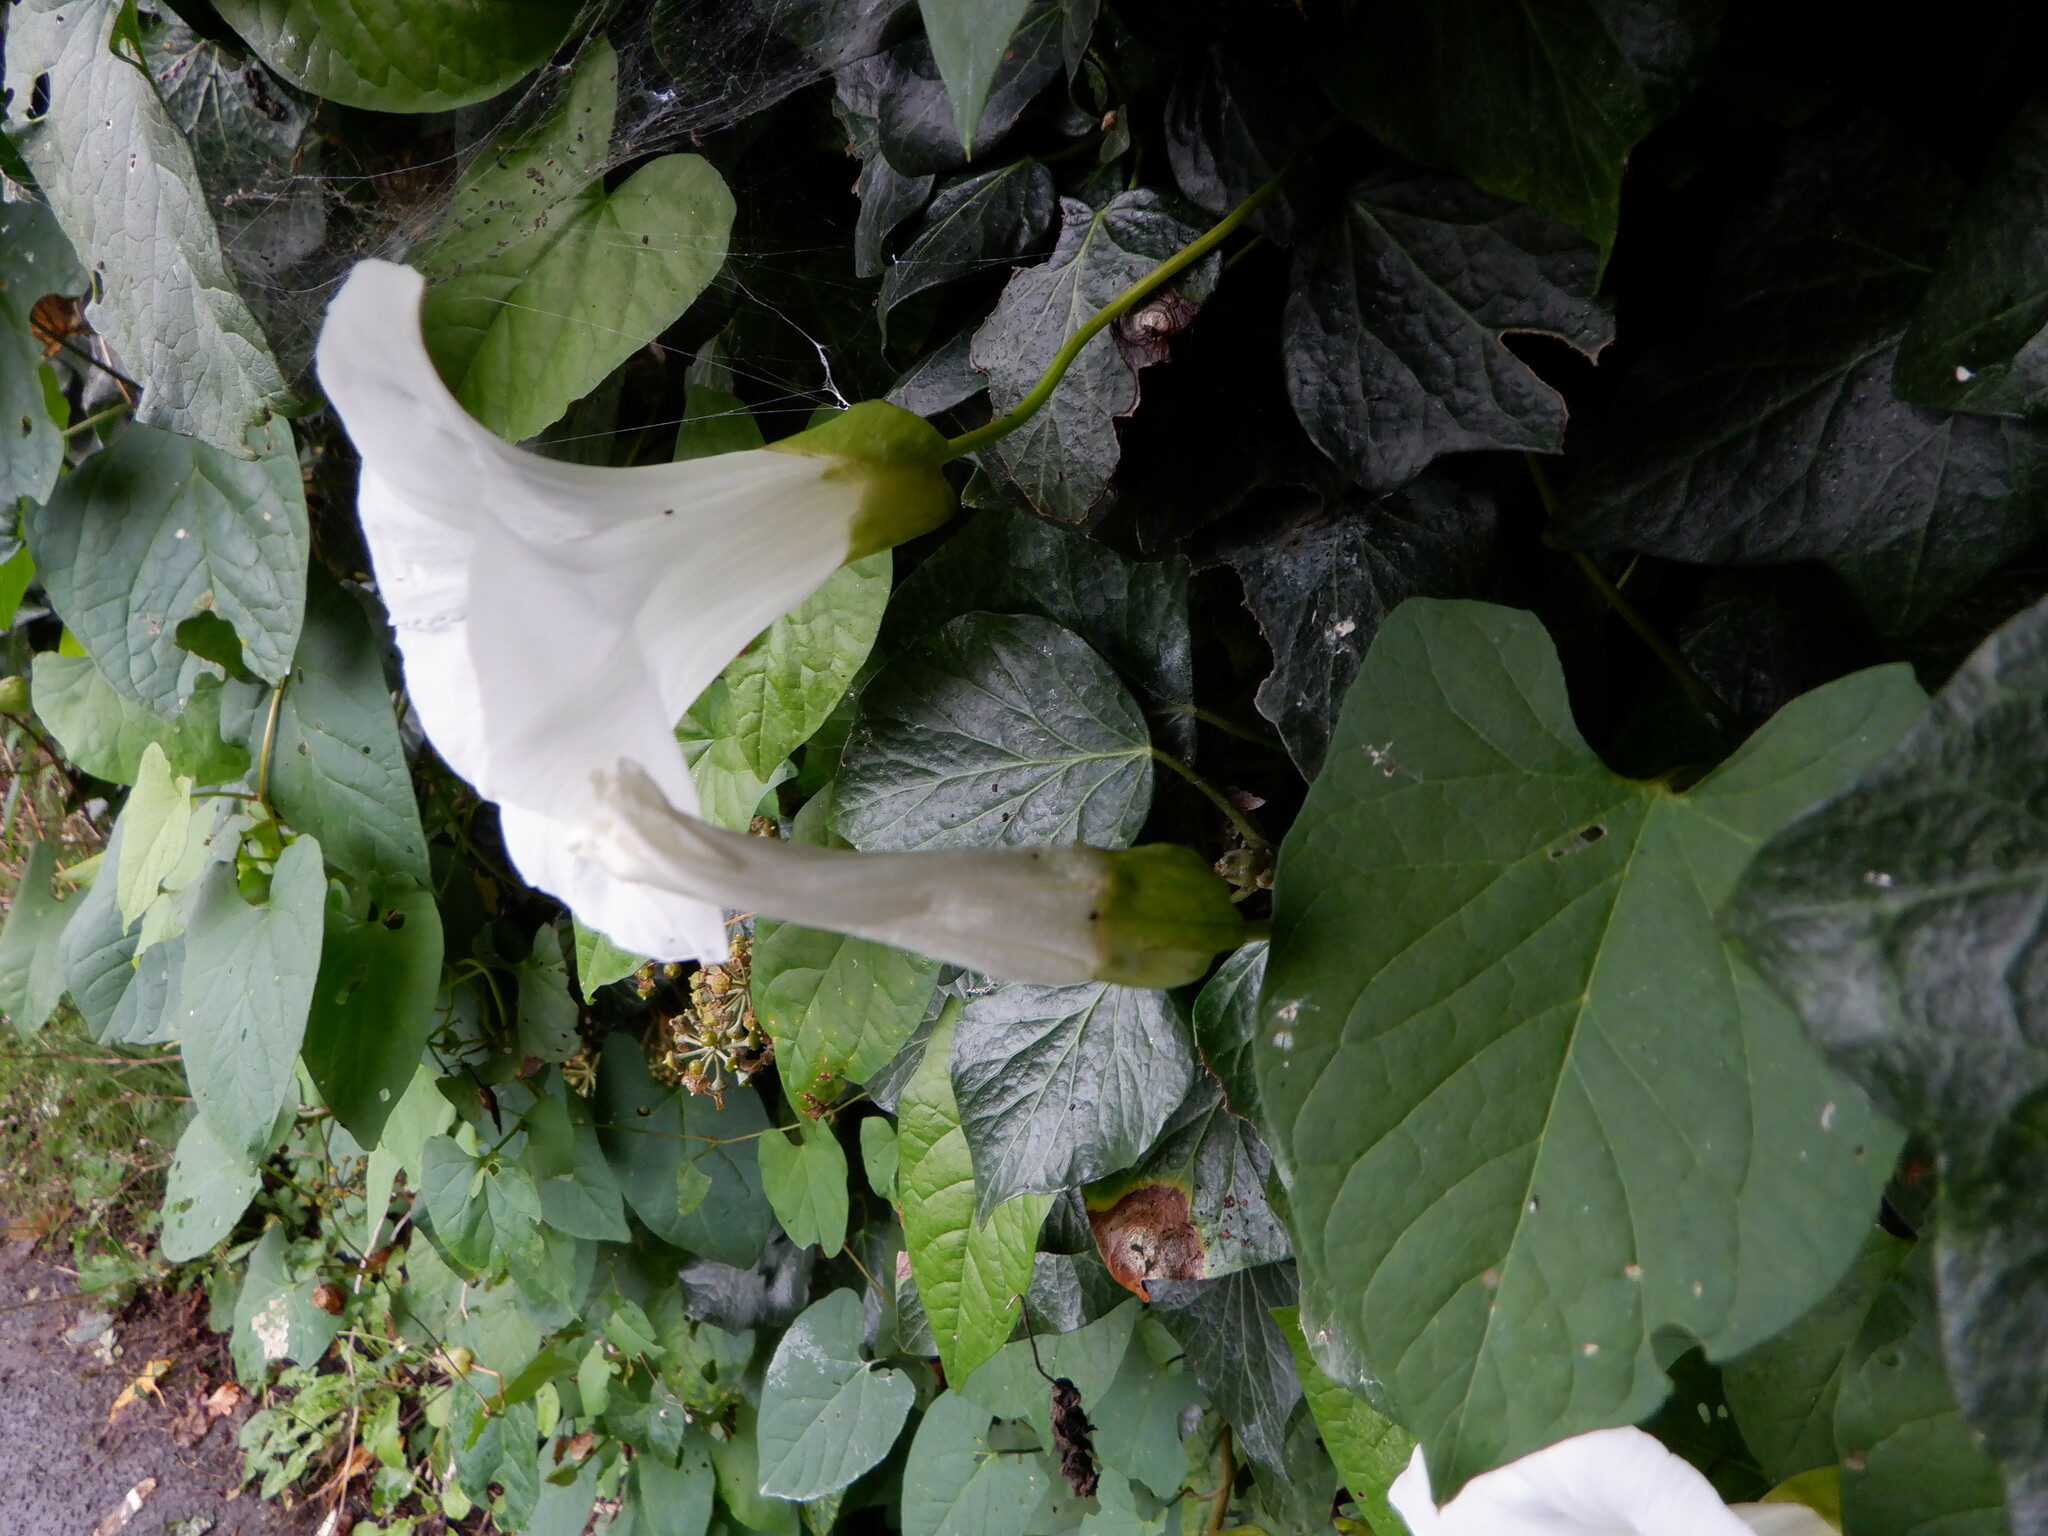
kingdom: Plantae
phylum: Tracheophyta
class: Magnoliopsida
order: Solanales
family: Convolvulaceae
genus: Calystegia
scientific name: Calystegia silvatica
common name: Large bindweed
